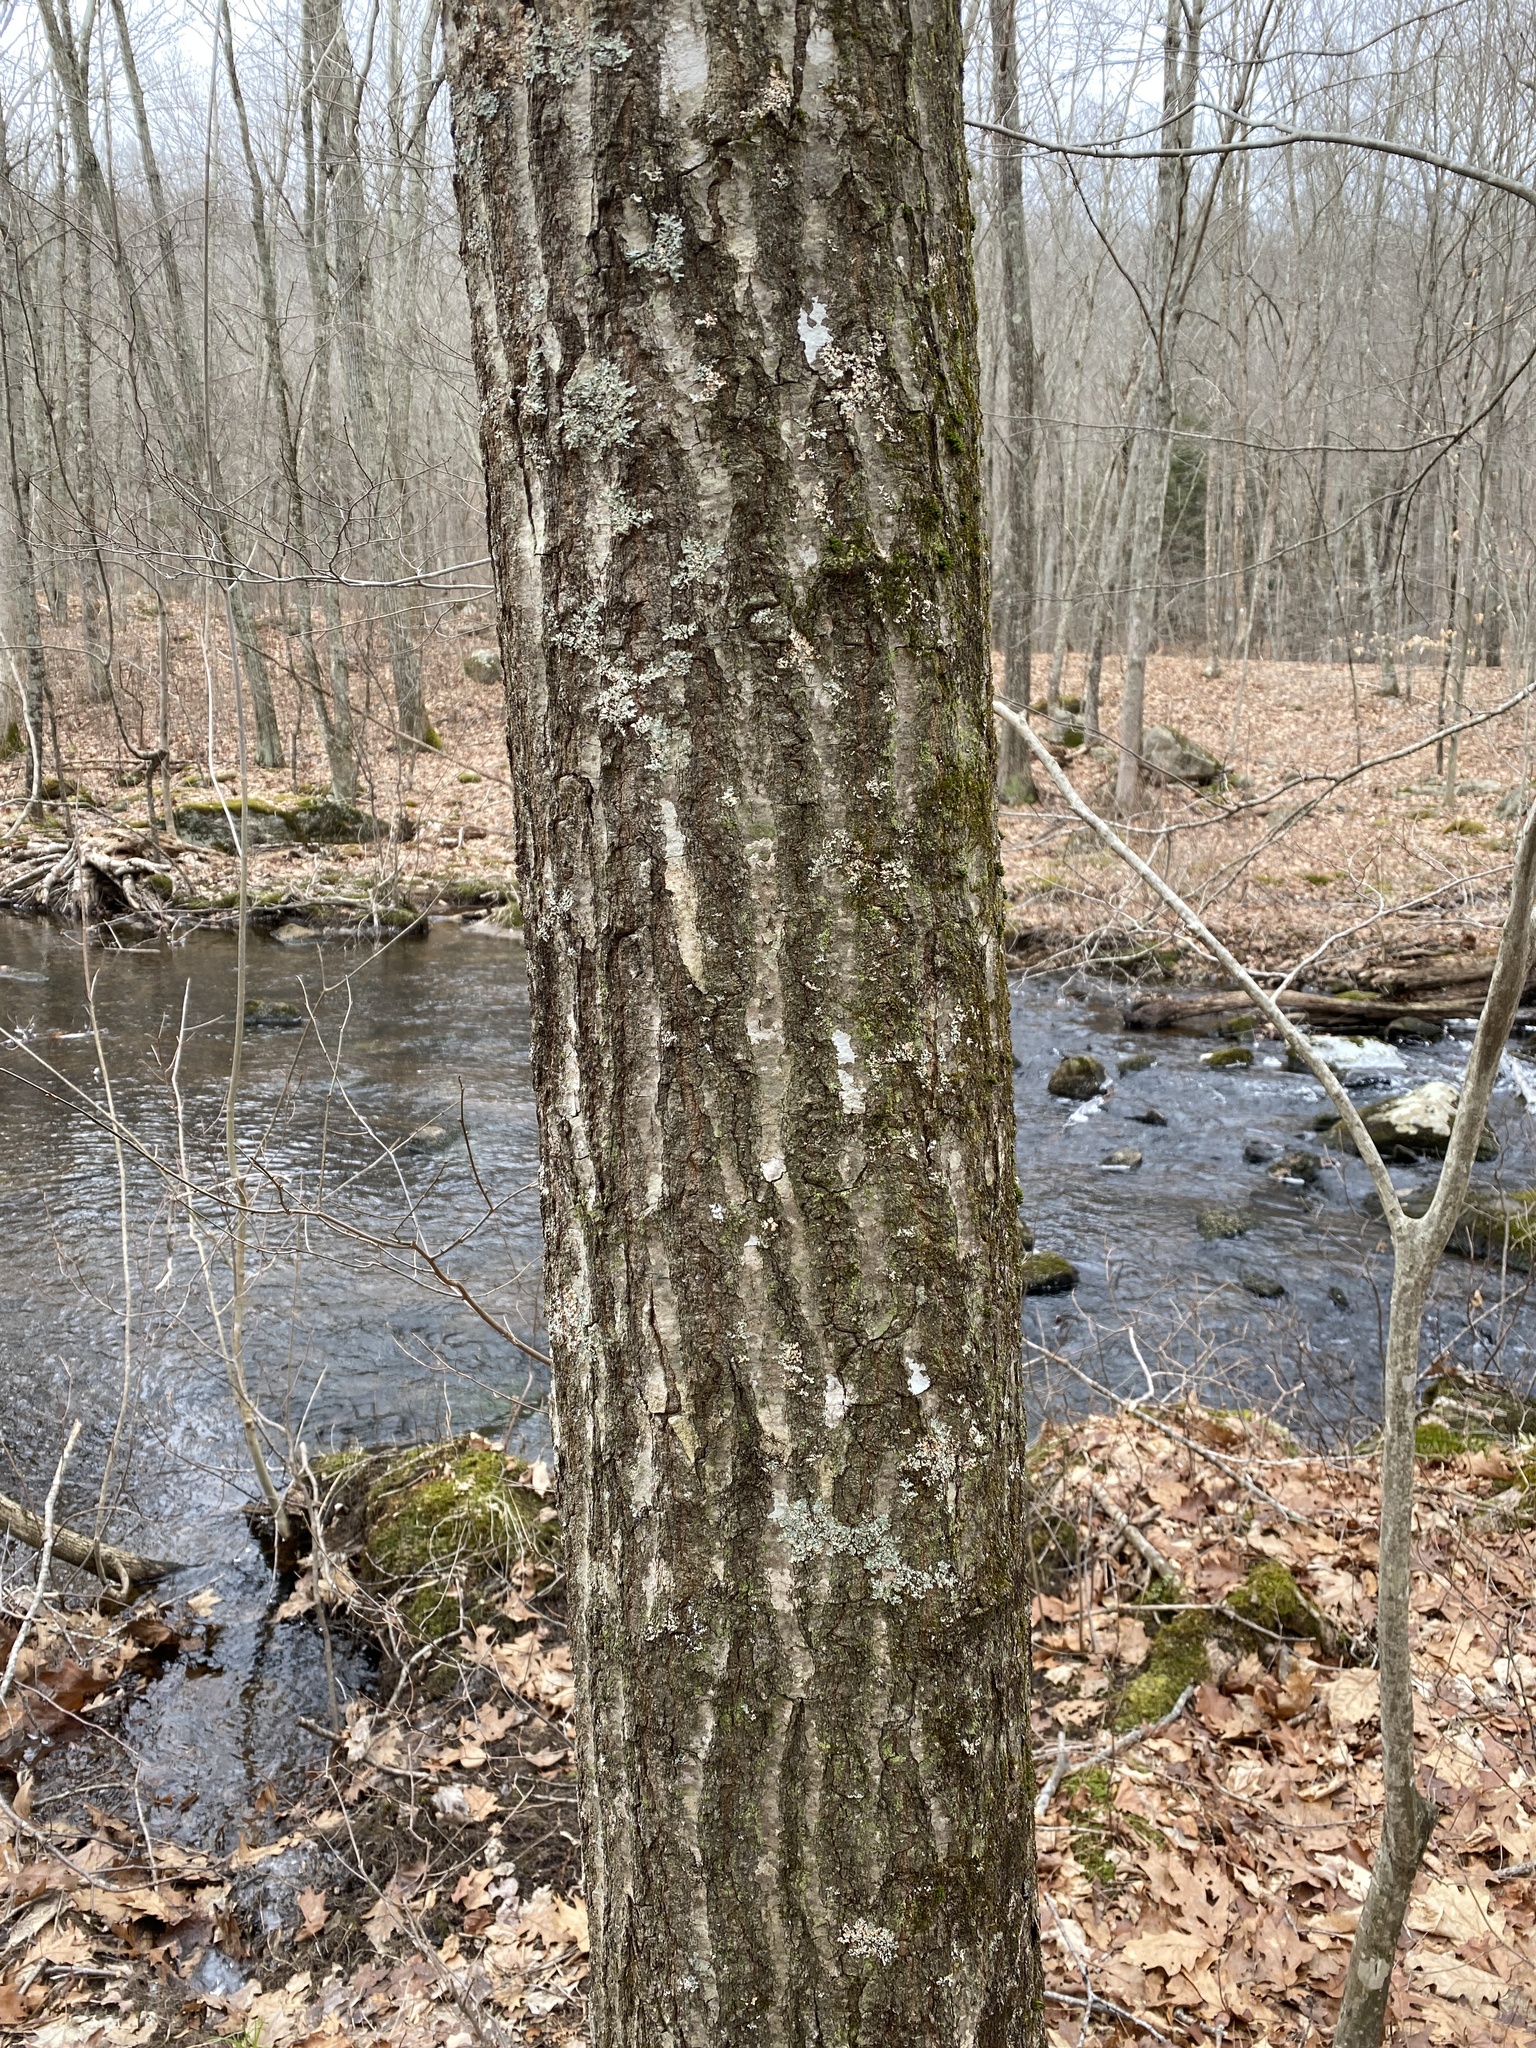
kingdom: Plantae
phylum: Tracheophyta
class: Magnoliopsida
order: Fagales
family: Fagaceae
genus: Quercus
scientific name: Quercus rubra
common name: Red oak
